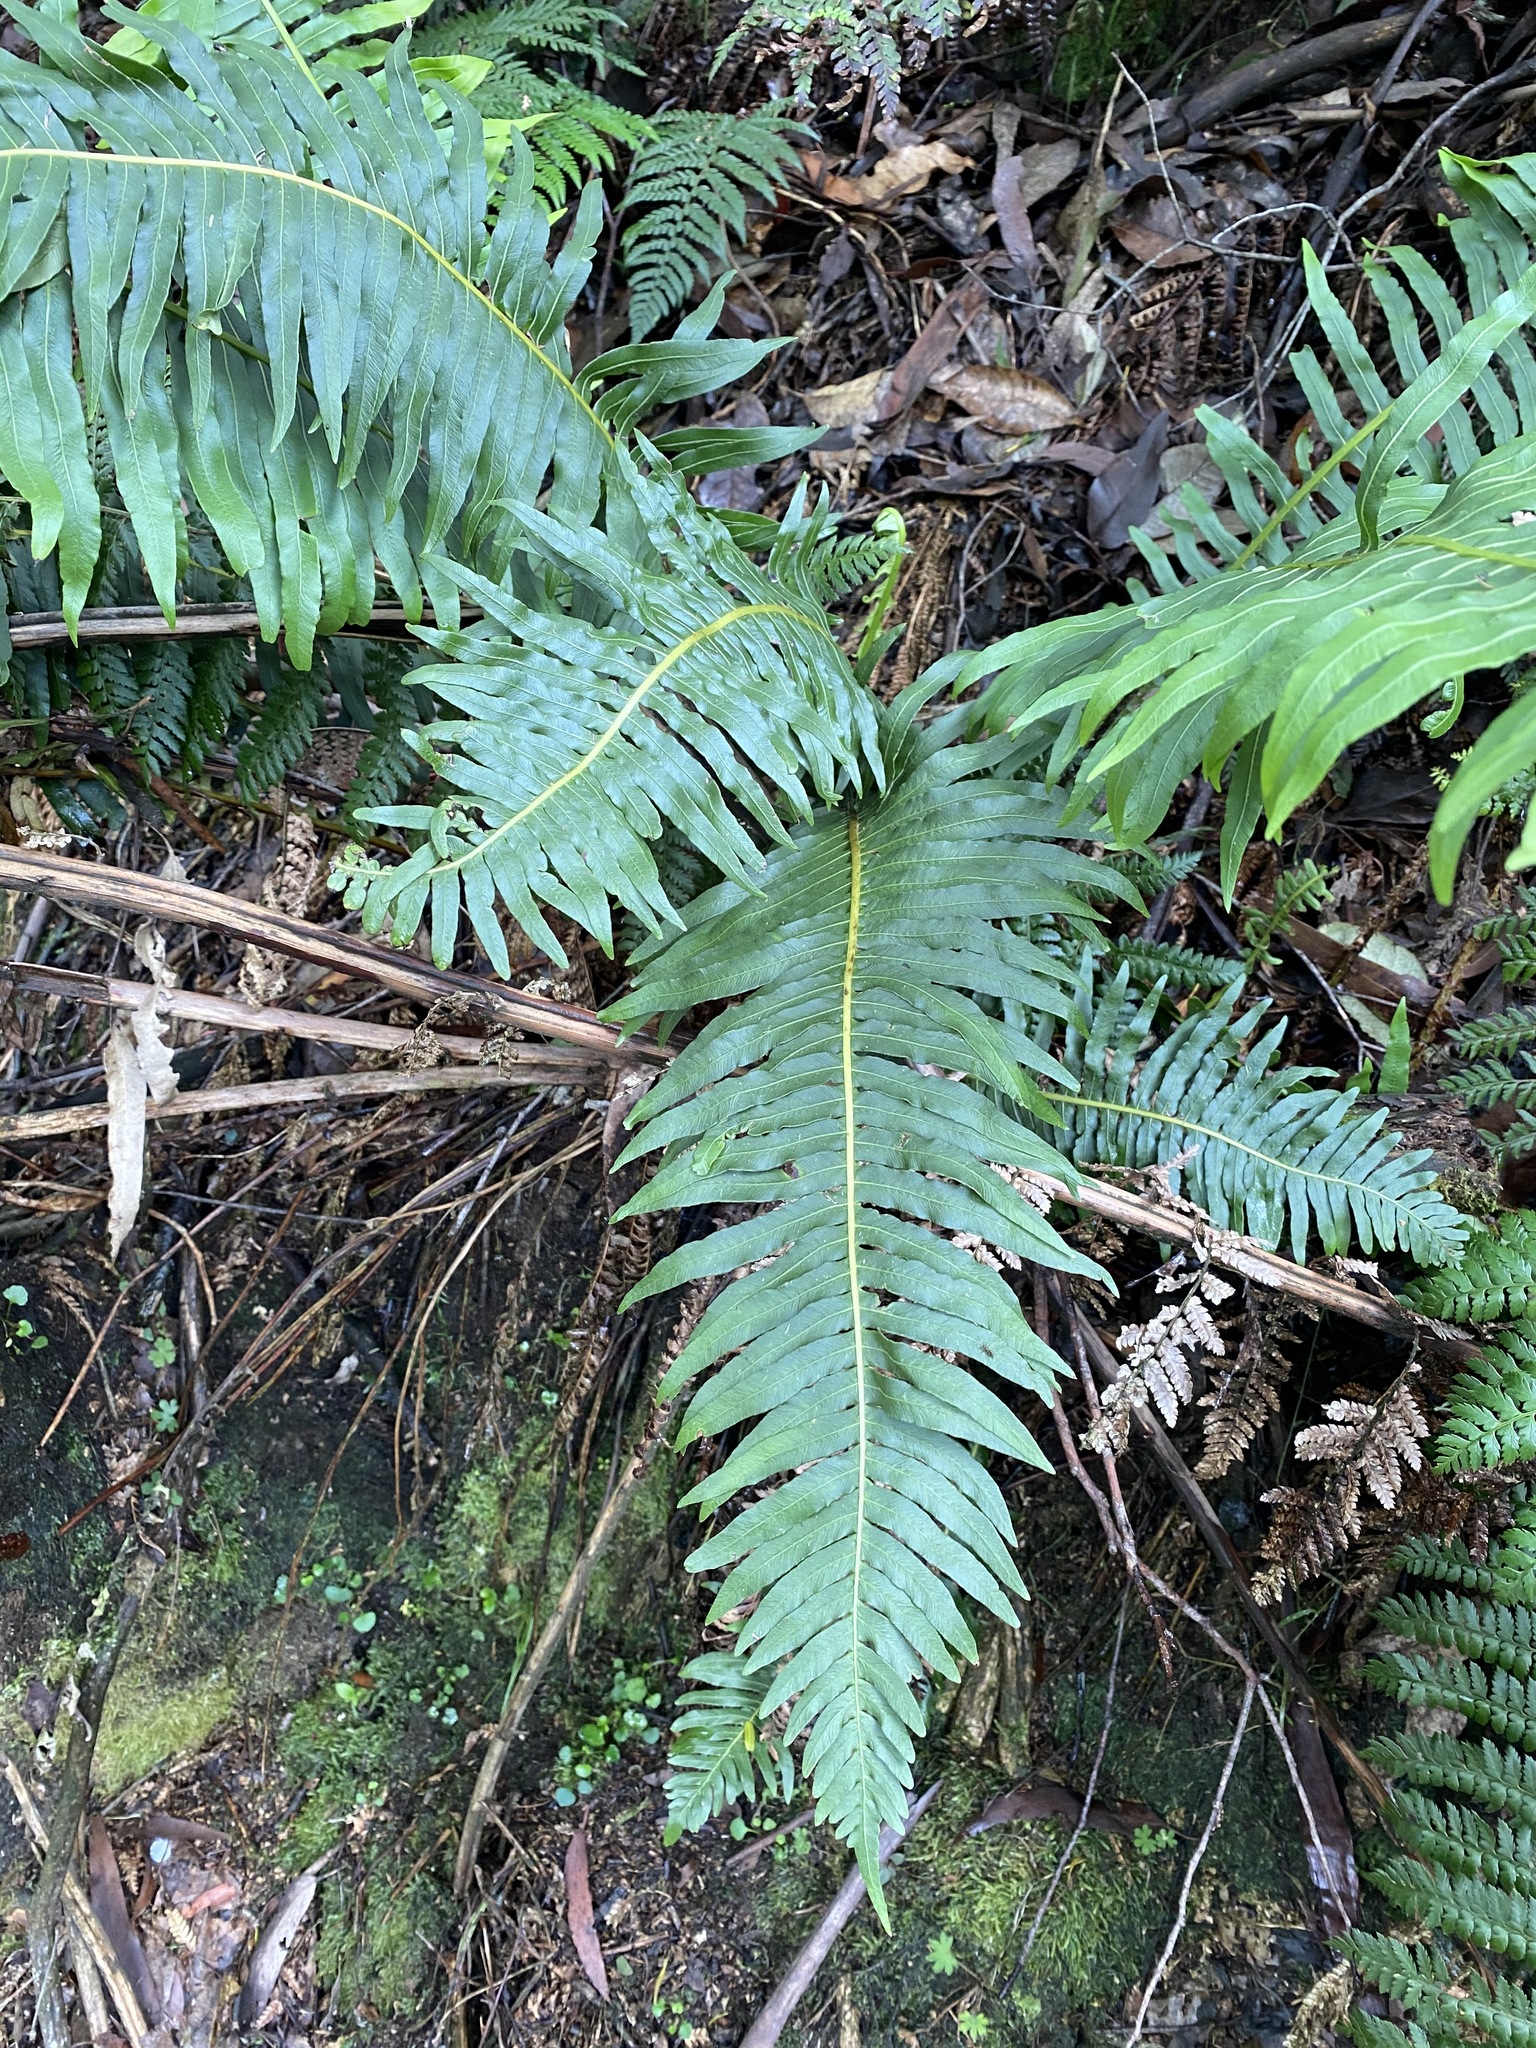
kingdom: Plantae
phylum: Tracheophyta
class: Polypodiopsida
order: Polypodiales
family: Blechnaceae
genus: Lomaria
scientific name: Lomaria nuda
